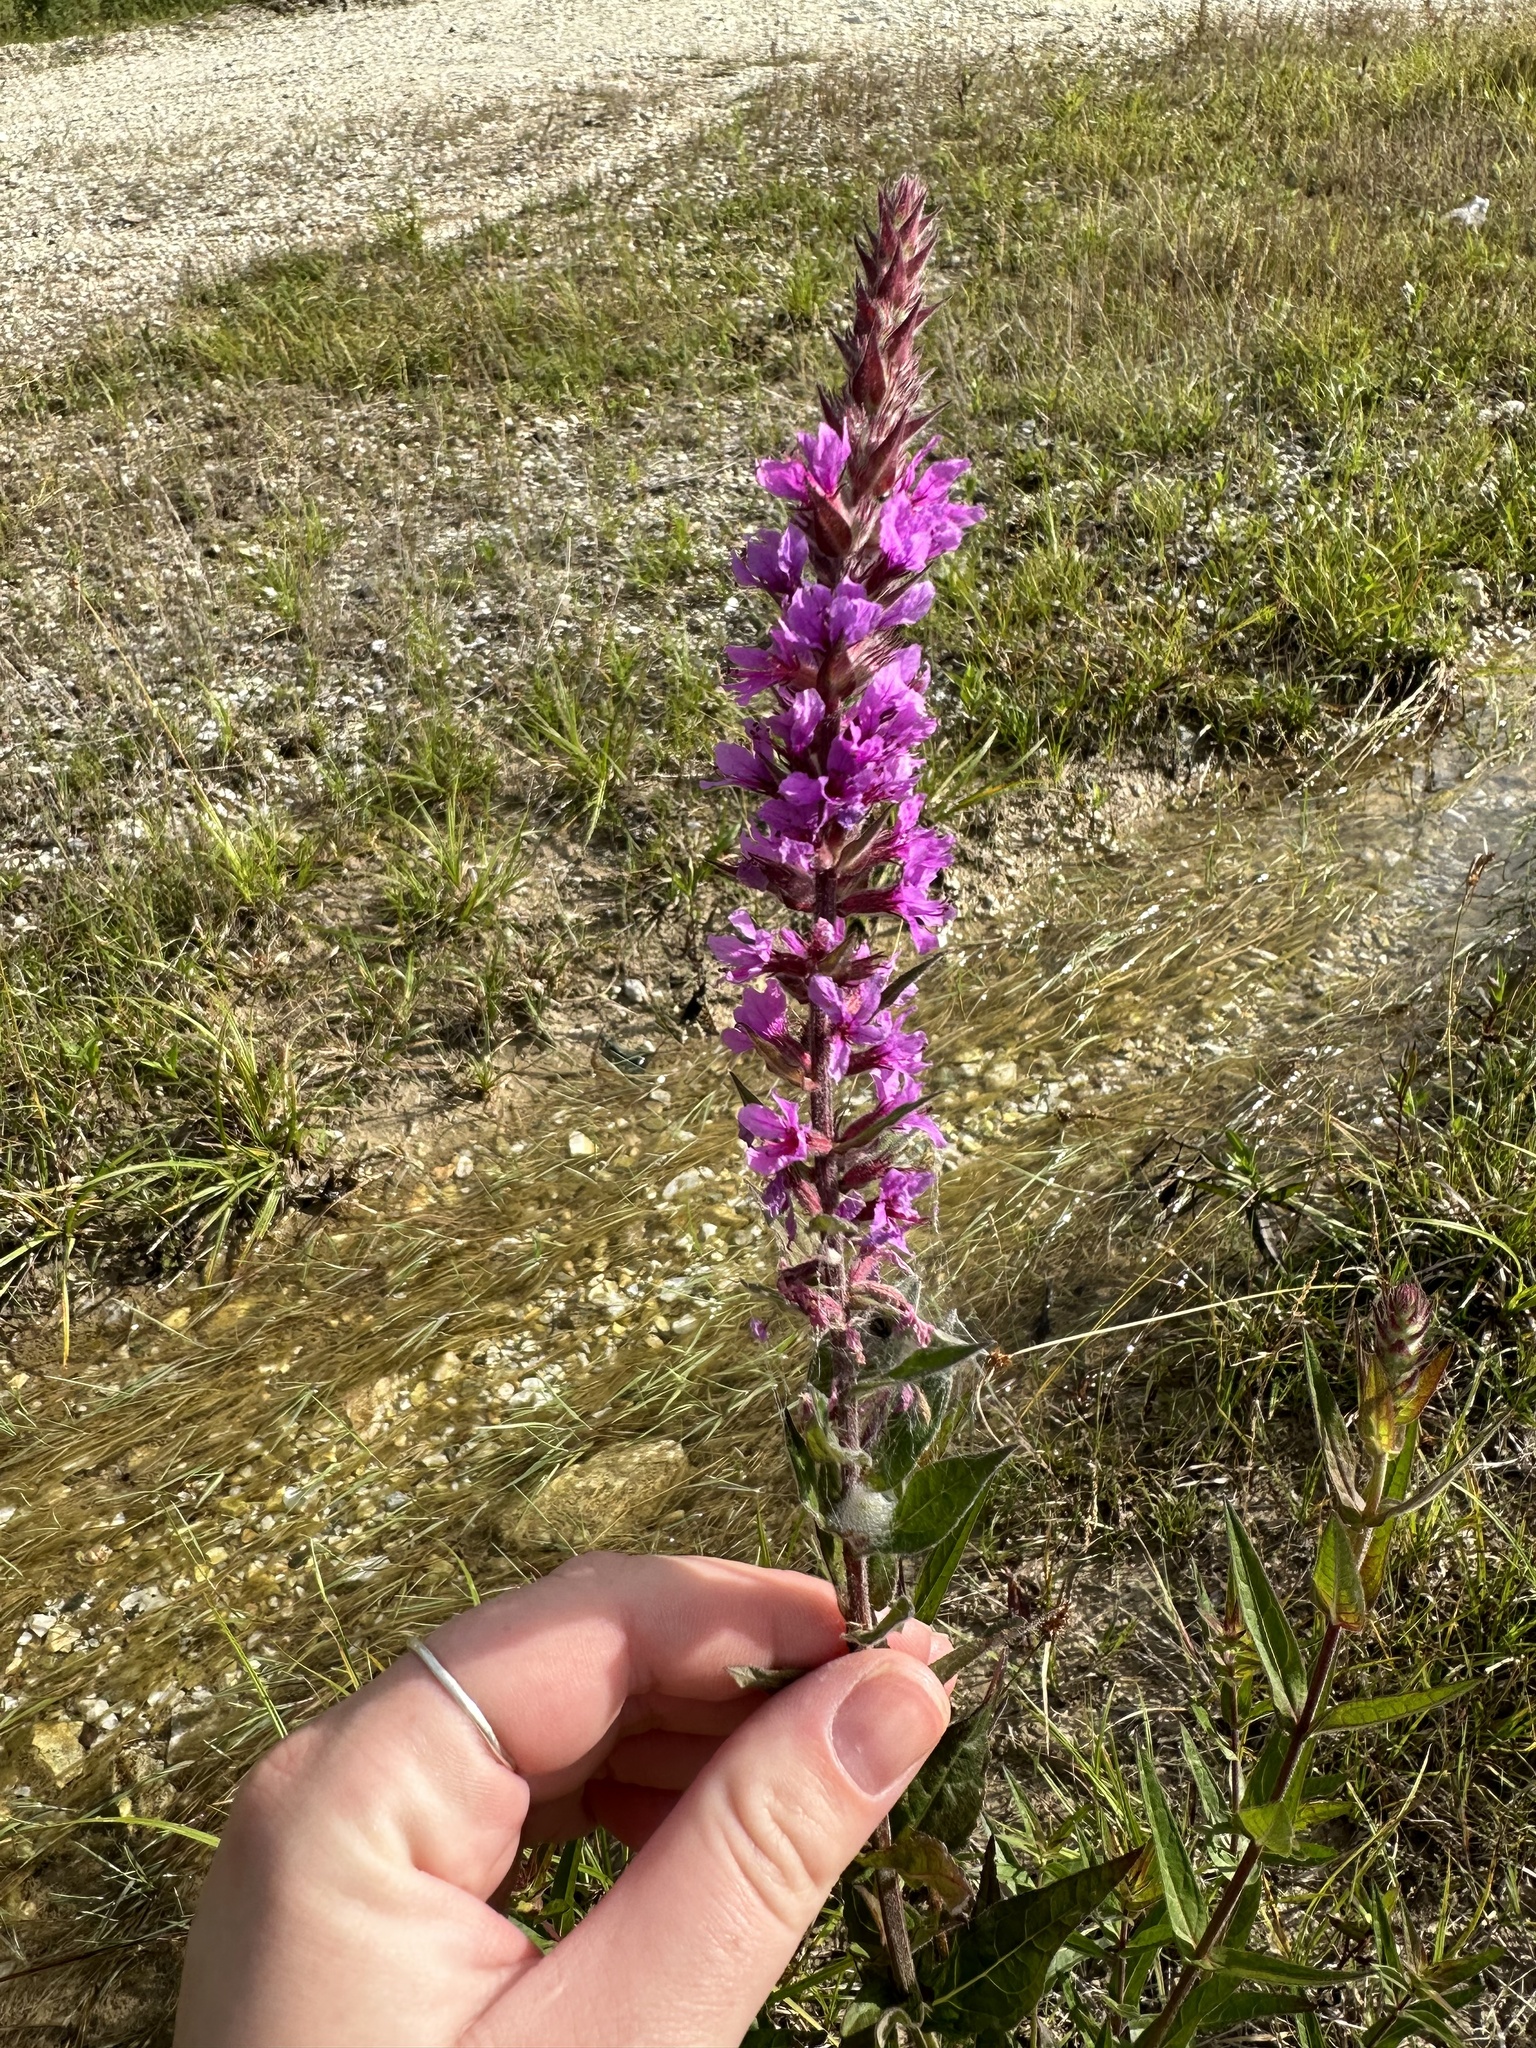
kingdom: Plantae
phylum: Tracheophyta
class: Magnoliopsida
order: Myrtales
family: Lythraceae
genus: Lythrum
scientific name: Lythrum salicaria
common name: Purple loosestrife
